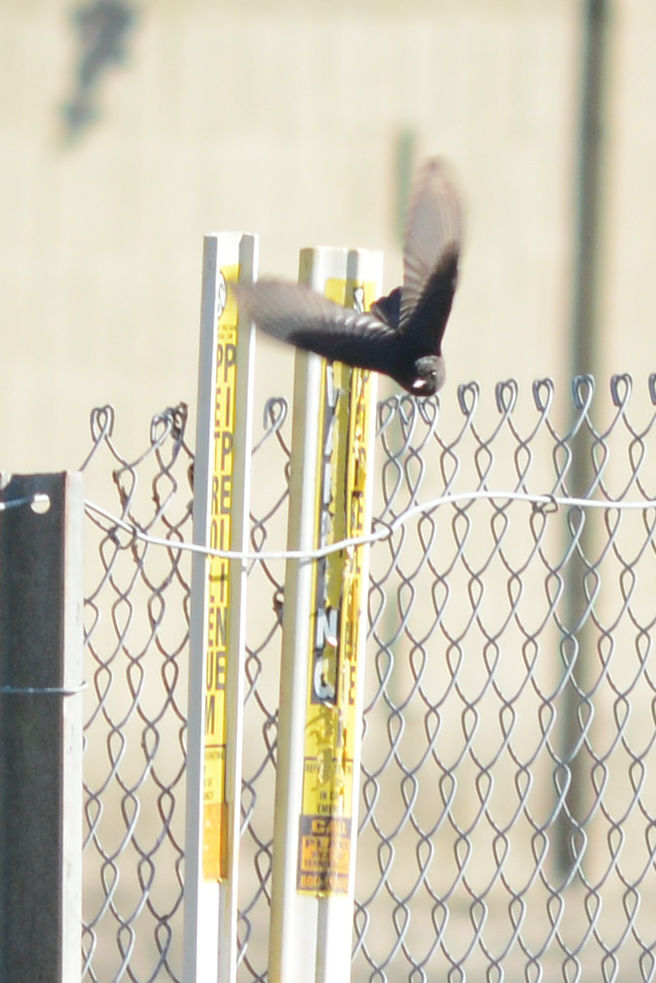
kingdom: Animalia
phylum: Chordata
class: Aves
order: Passeriformes
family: Tyrannidae
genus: Sayornis
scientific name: Sayornis nigricans
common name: Black phoebe
